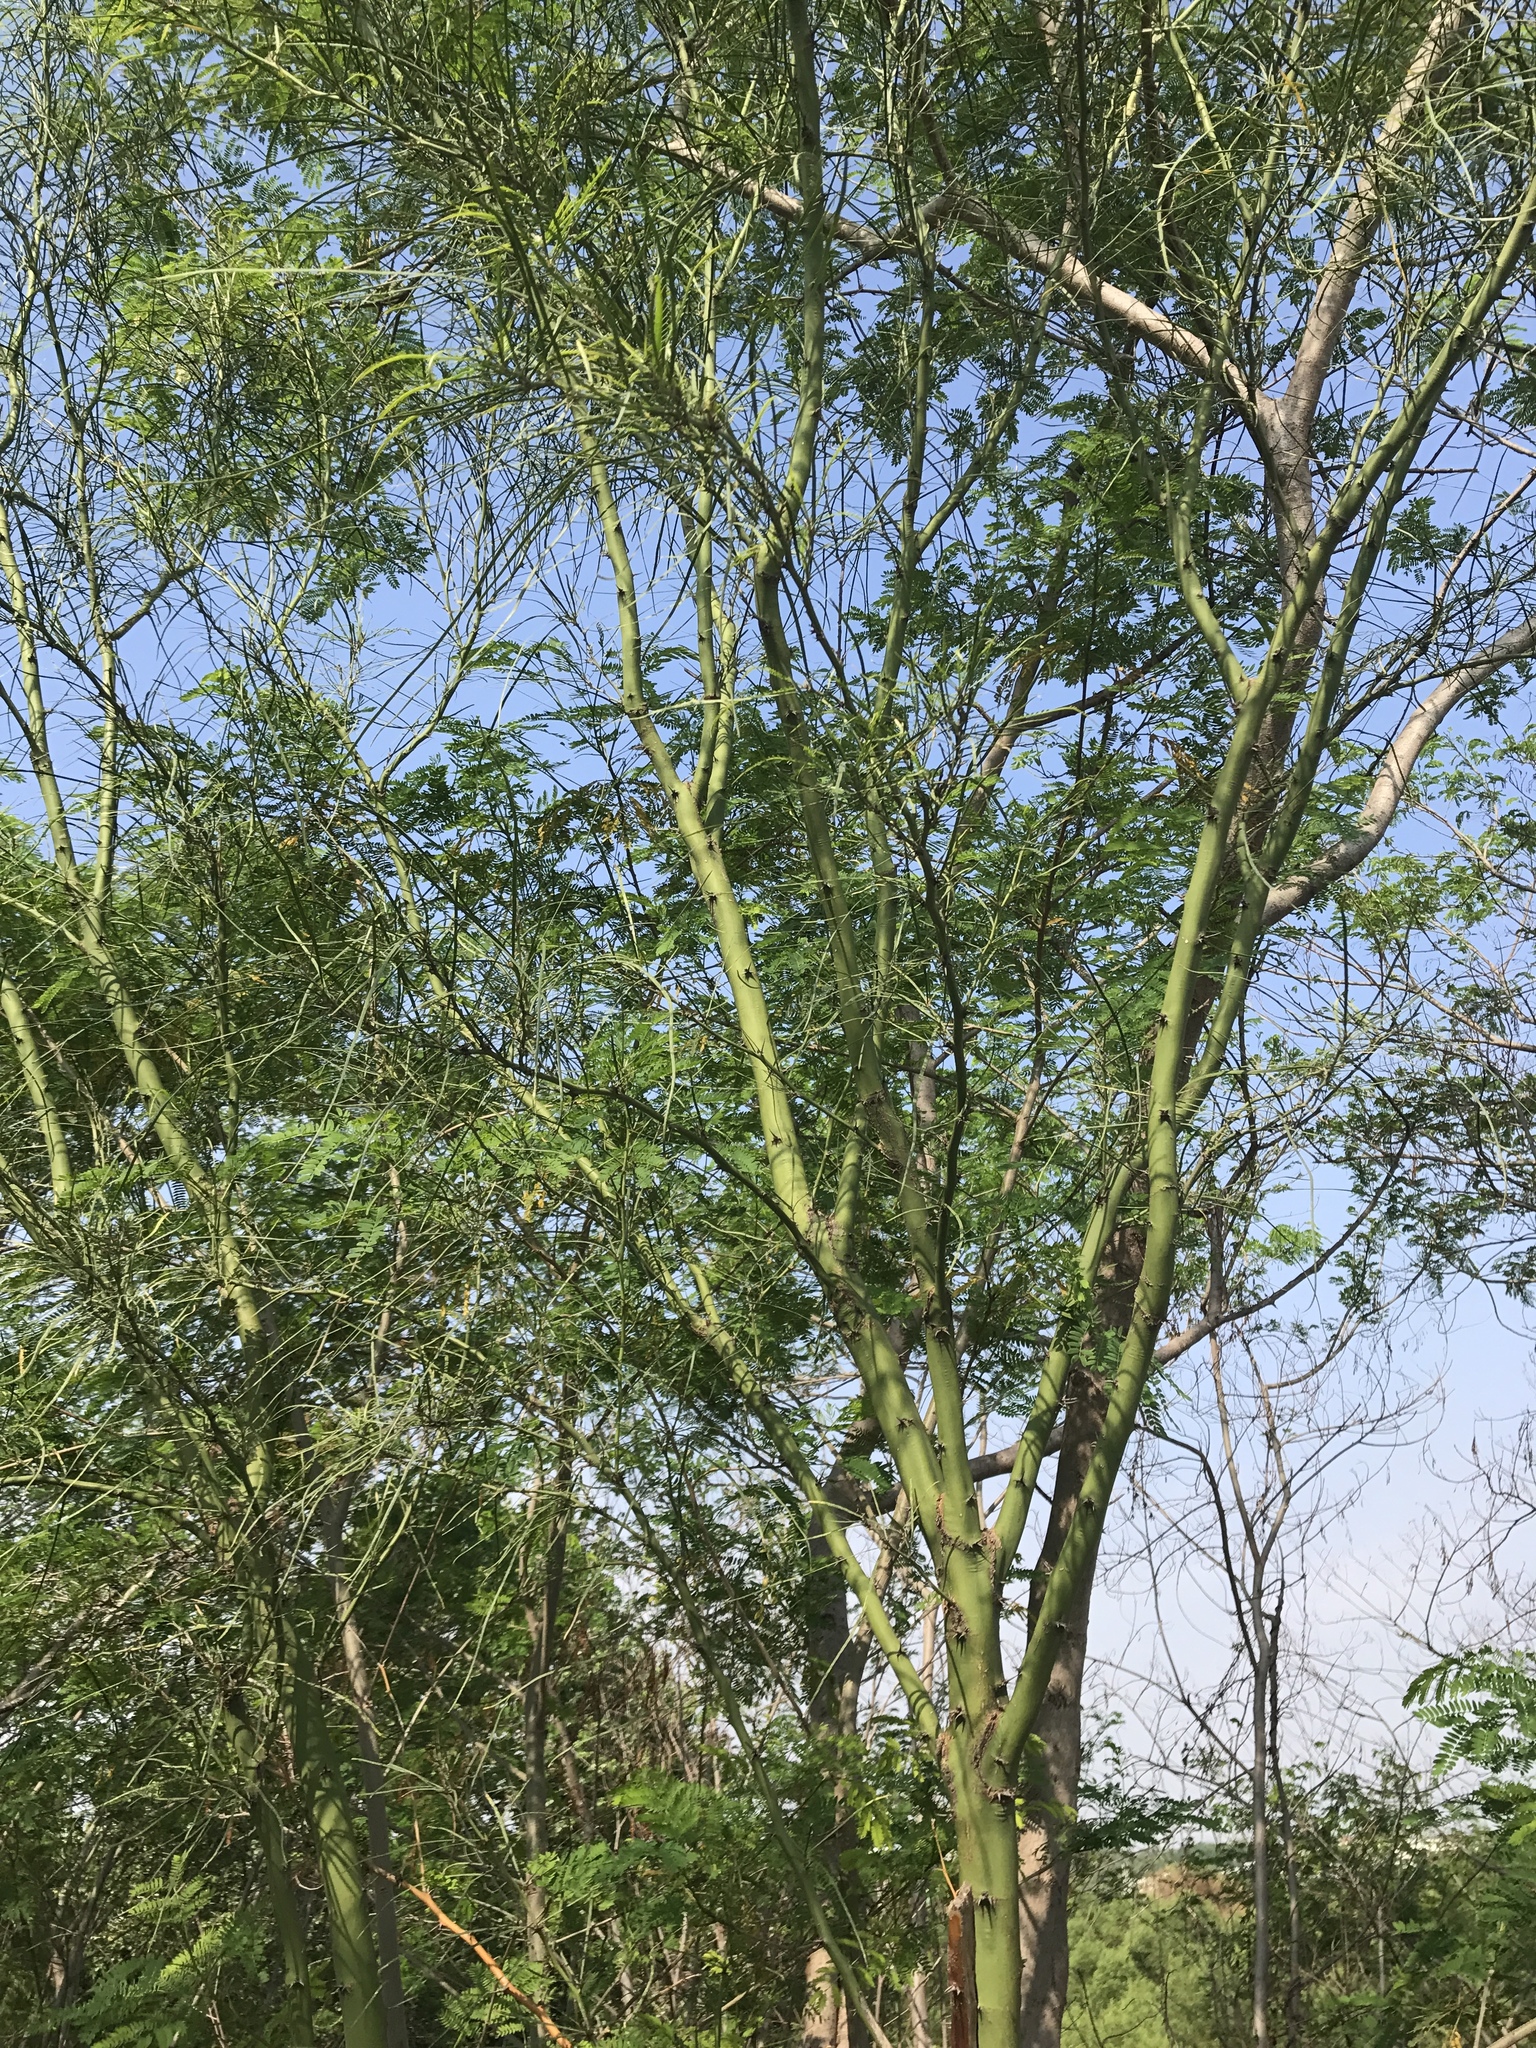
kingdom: Plantae
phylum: Tracheophyta
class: Magnoliopsida
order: Fabales
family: Fabaceae
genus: Parkinsonia
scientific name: Parkinsonia aculeata
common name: Jerusalem thorn
